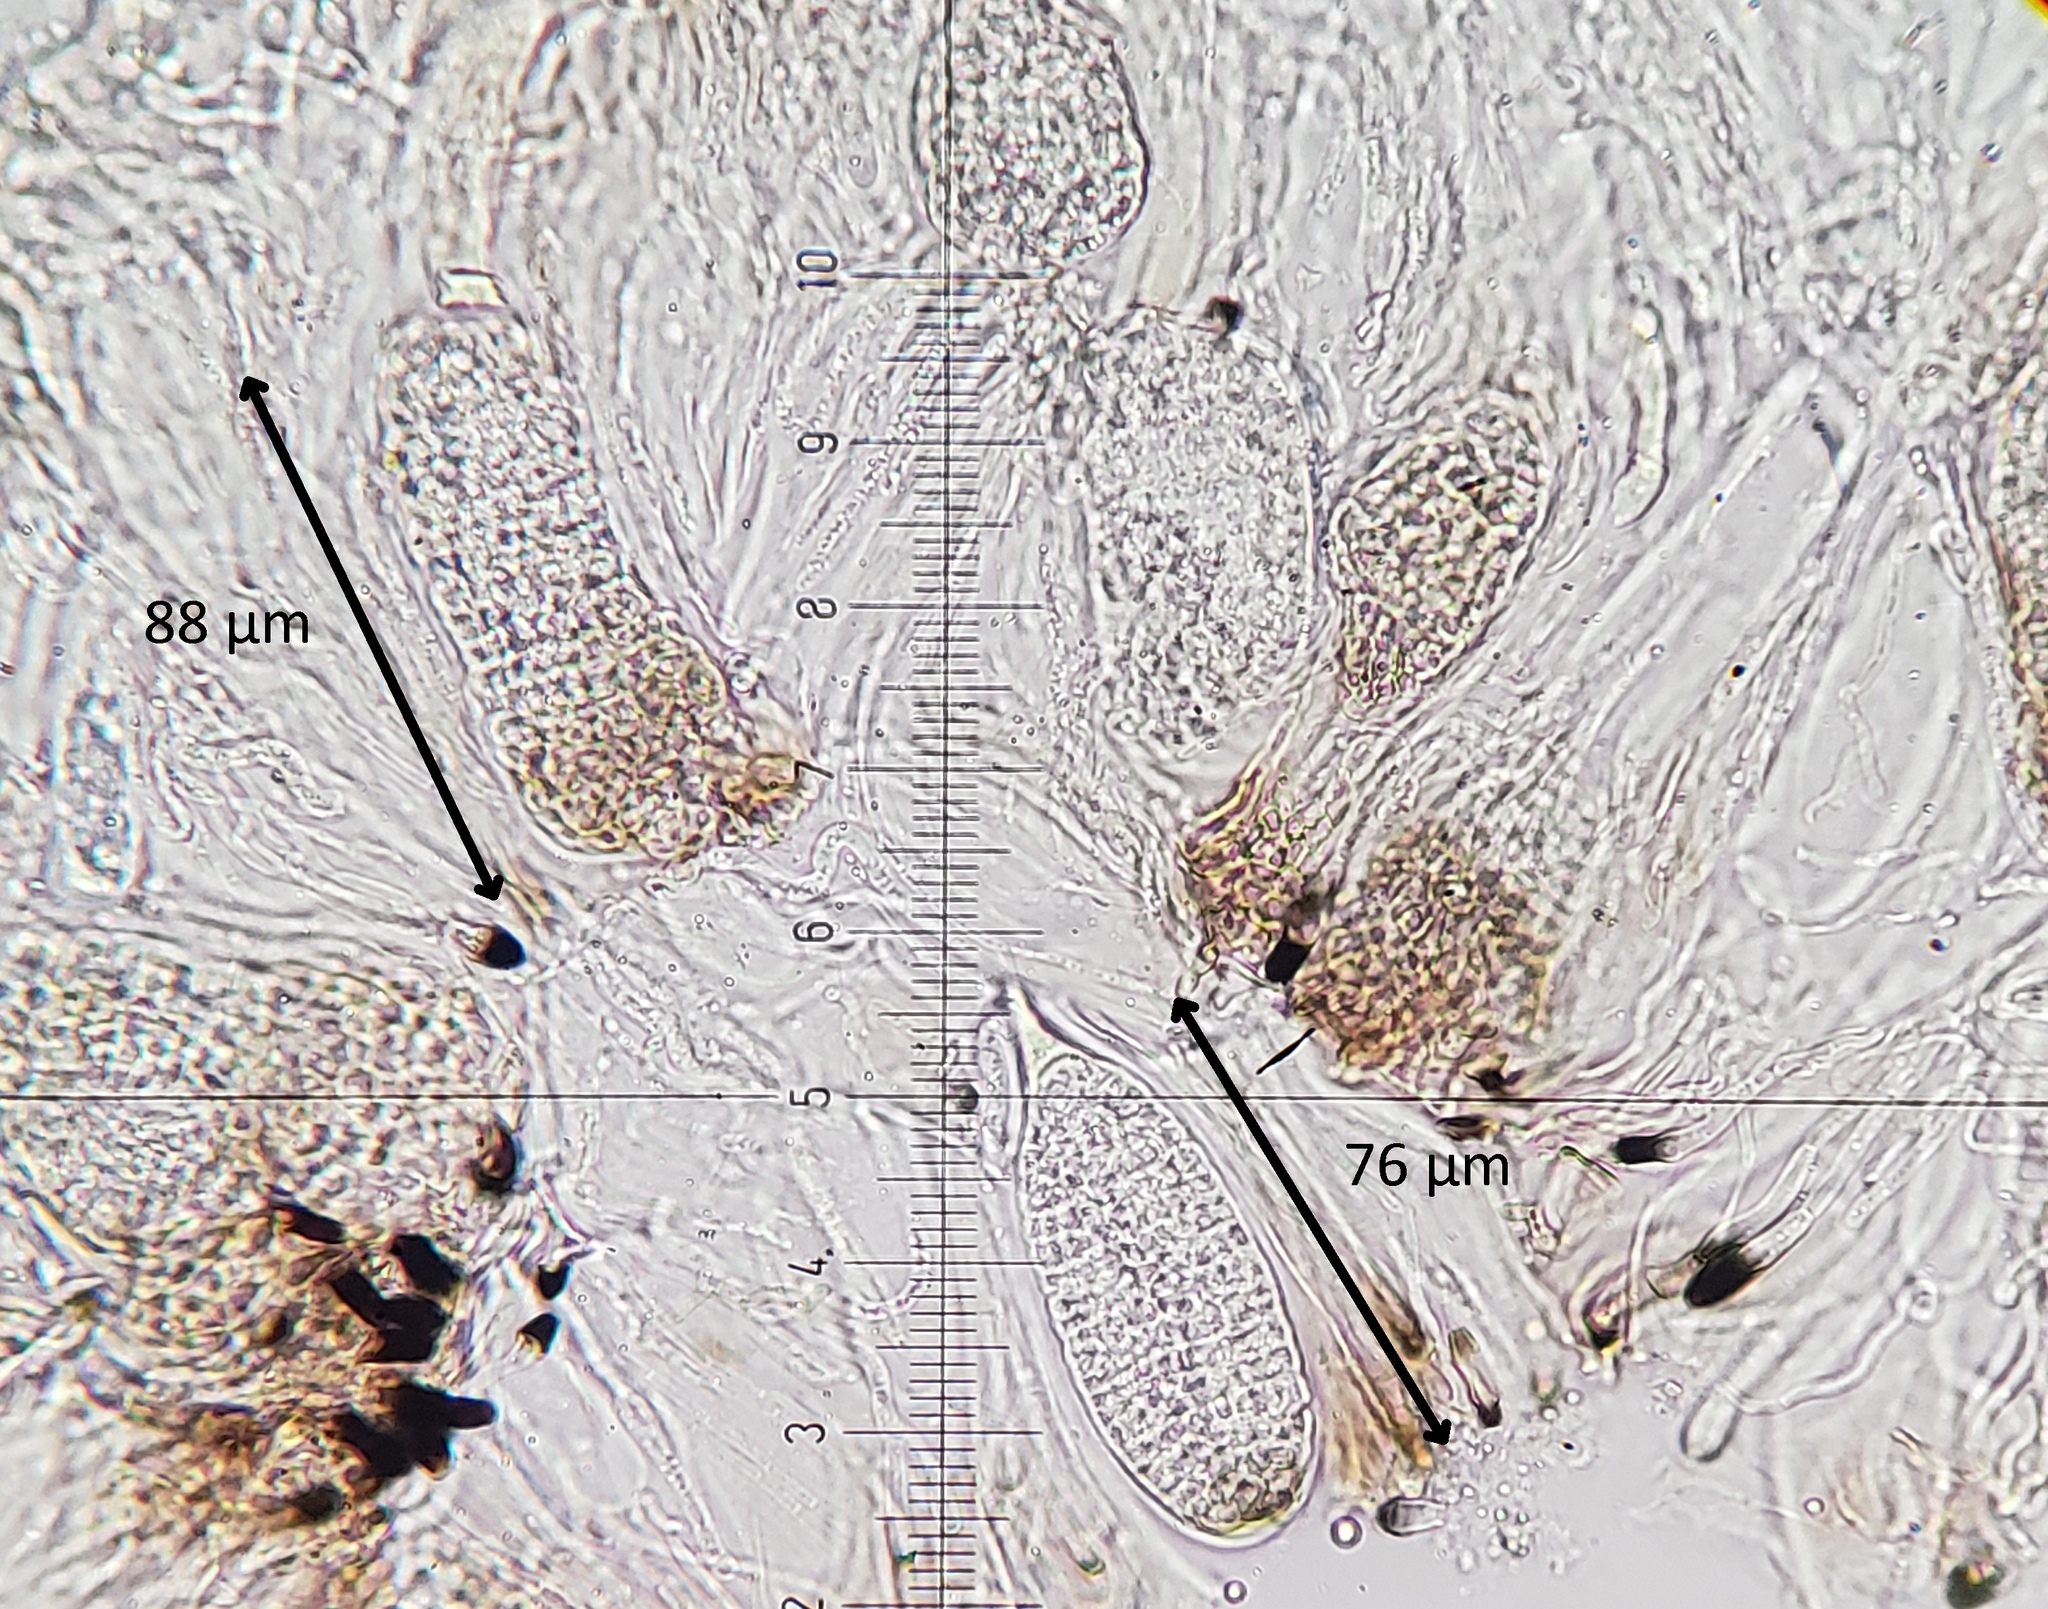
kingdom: Fungi
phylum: Ascomycota
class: Lecanoromycetes
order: Lecideales
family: Lopadiaceae
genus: Lopadium
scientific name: Lopadium disciforme
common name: Urn-disk lichen
